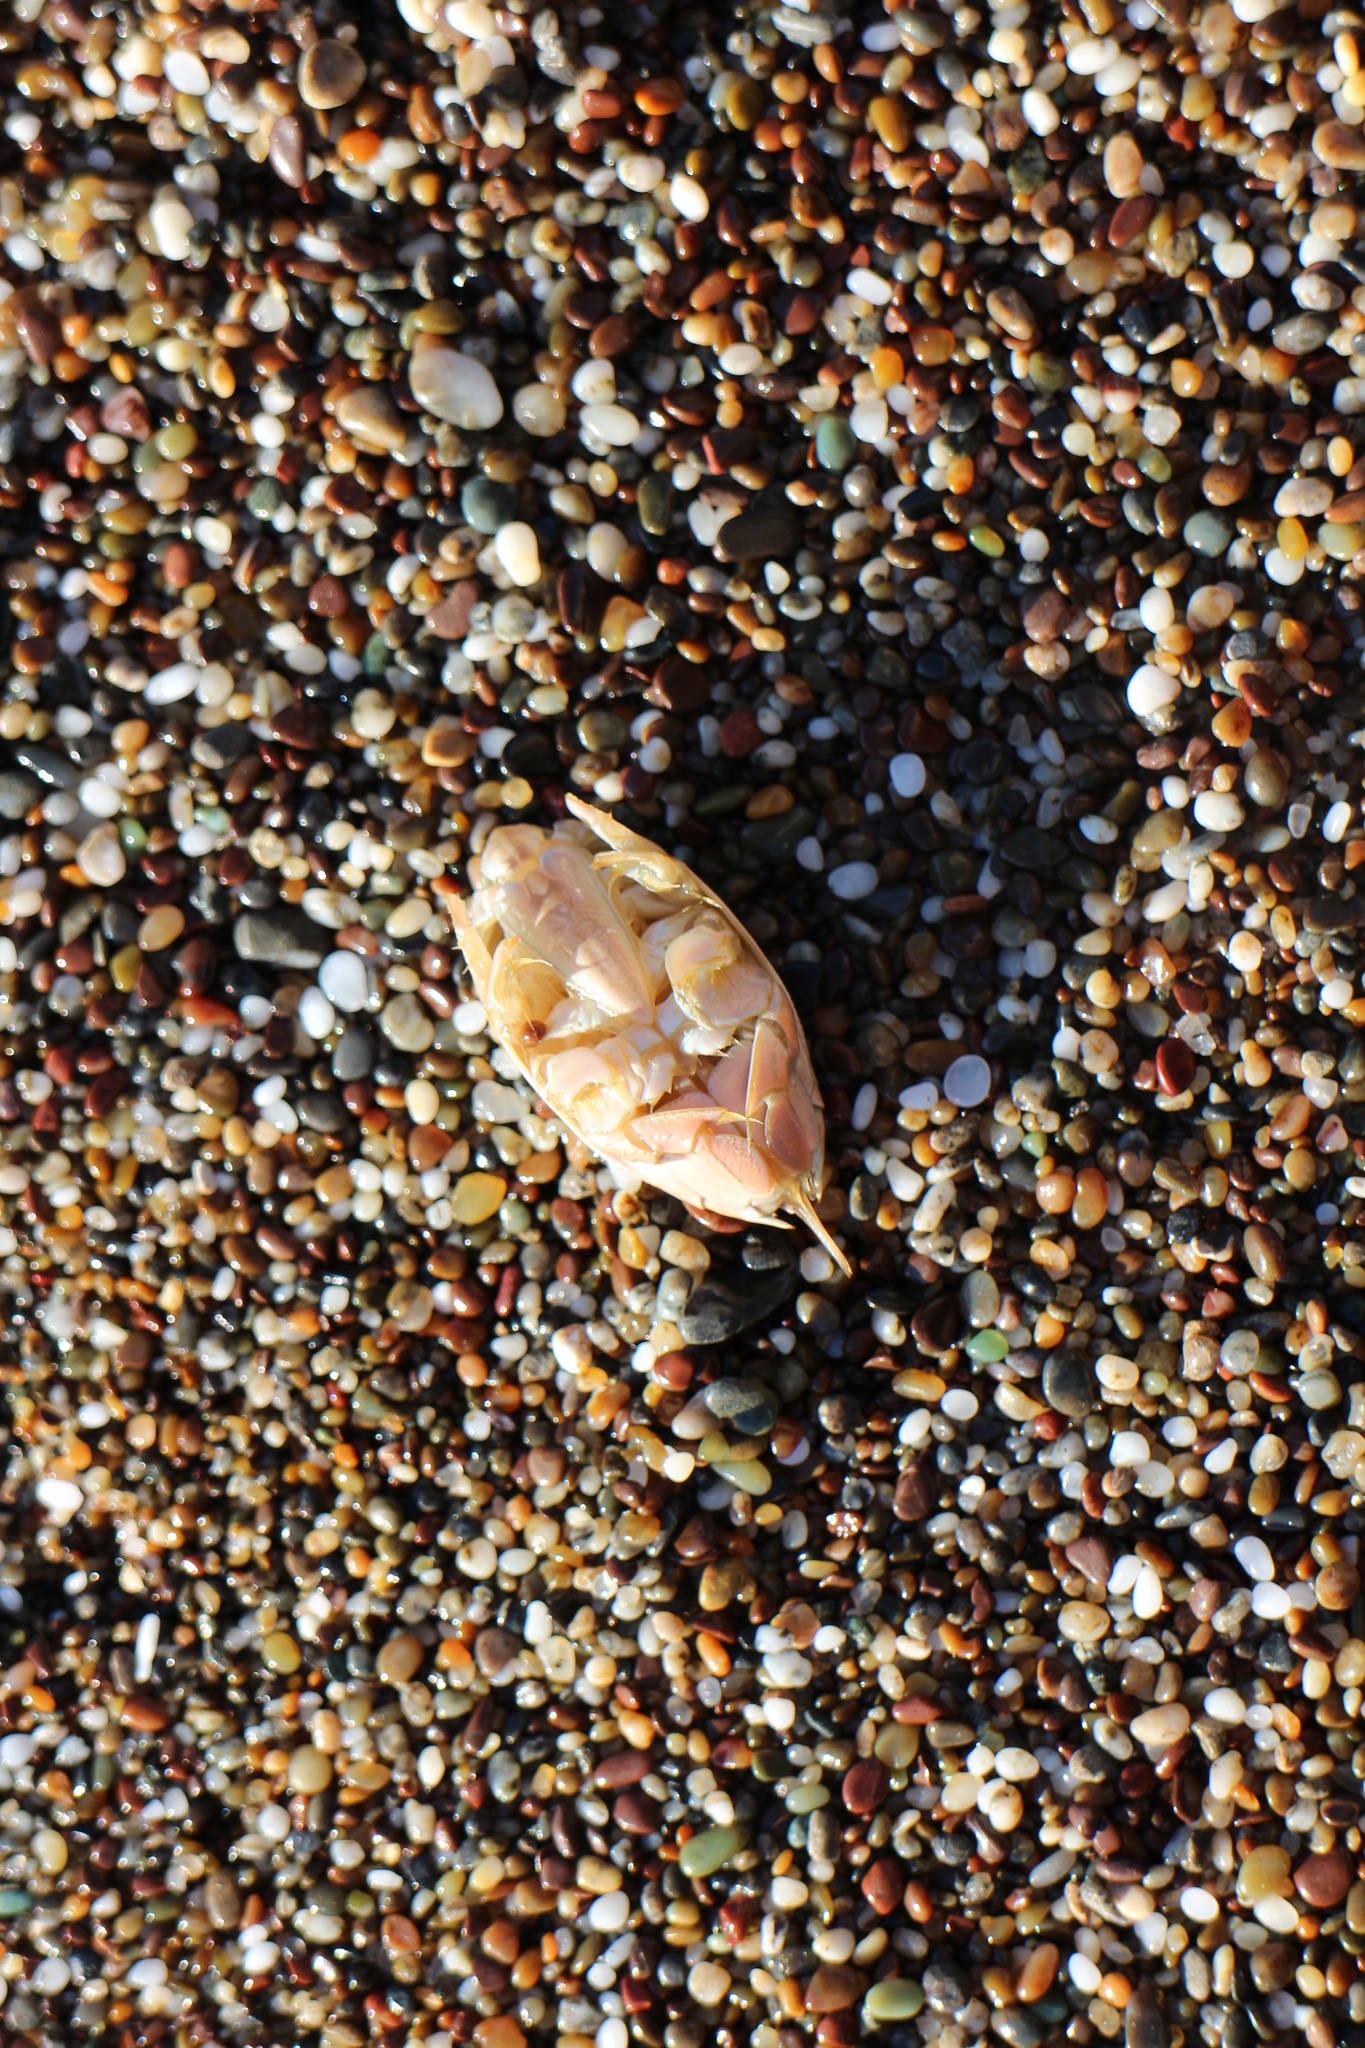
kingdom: Animalia
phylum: Arthropoda
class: Malacostraca
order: Decapoda
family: Hippidae
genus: Emerita
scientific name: Emerita analoga
